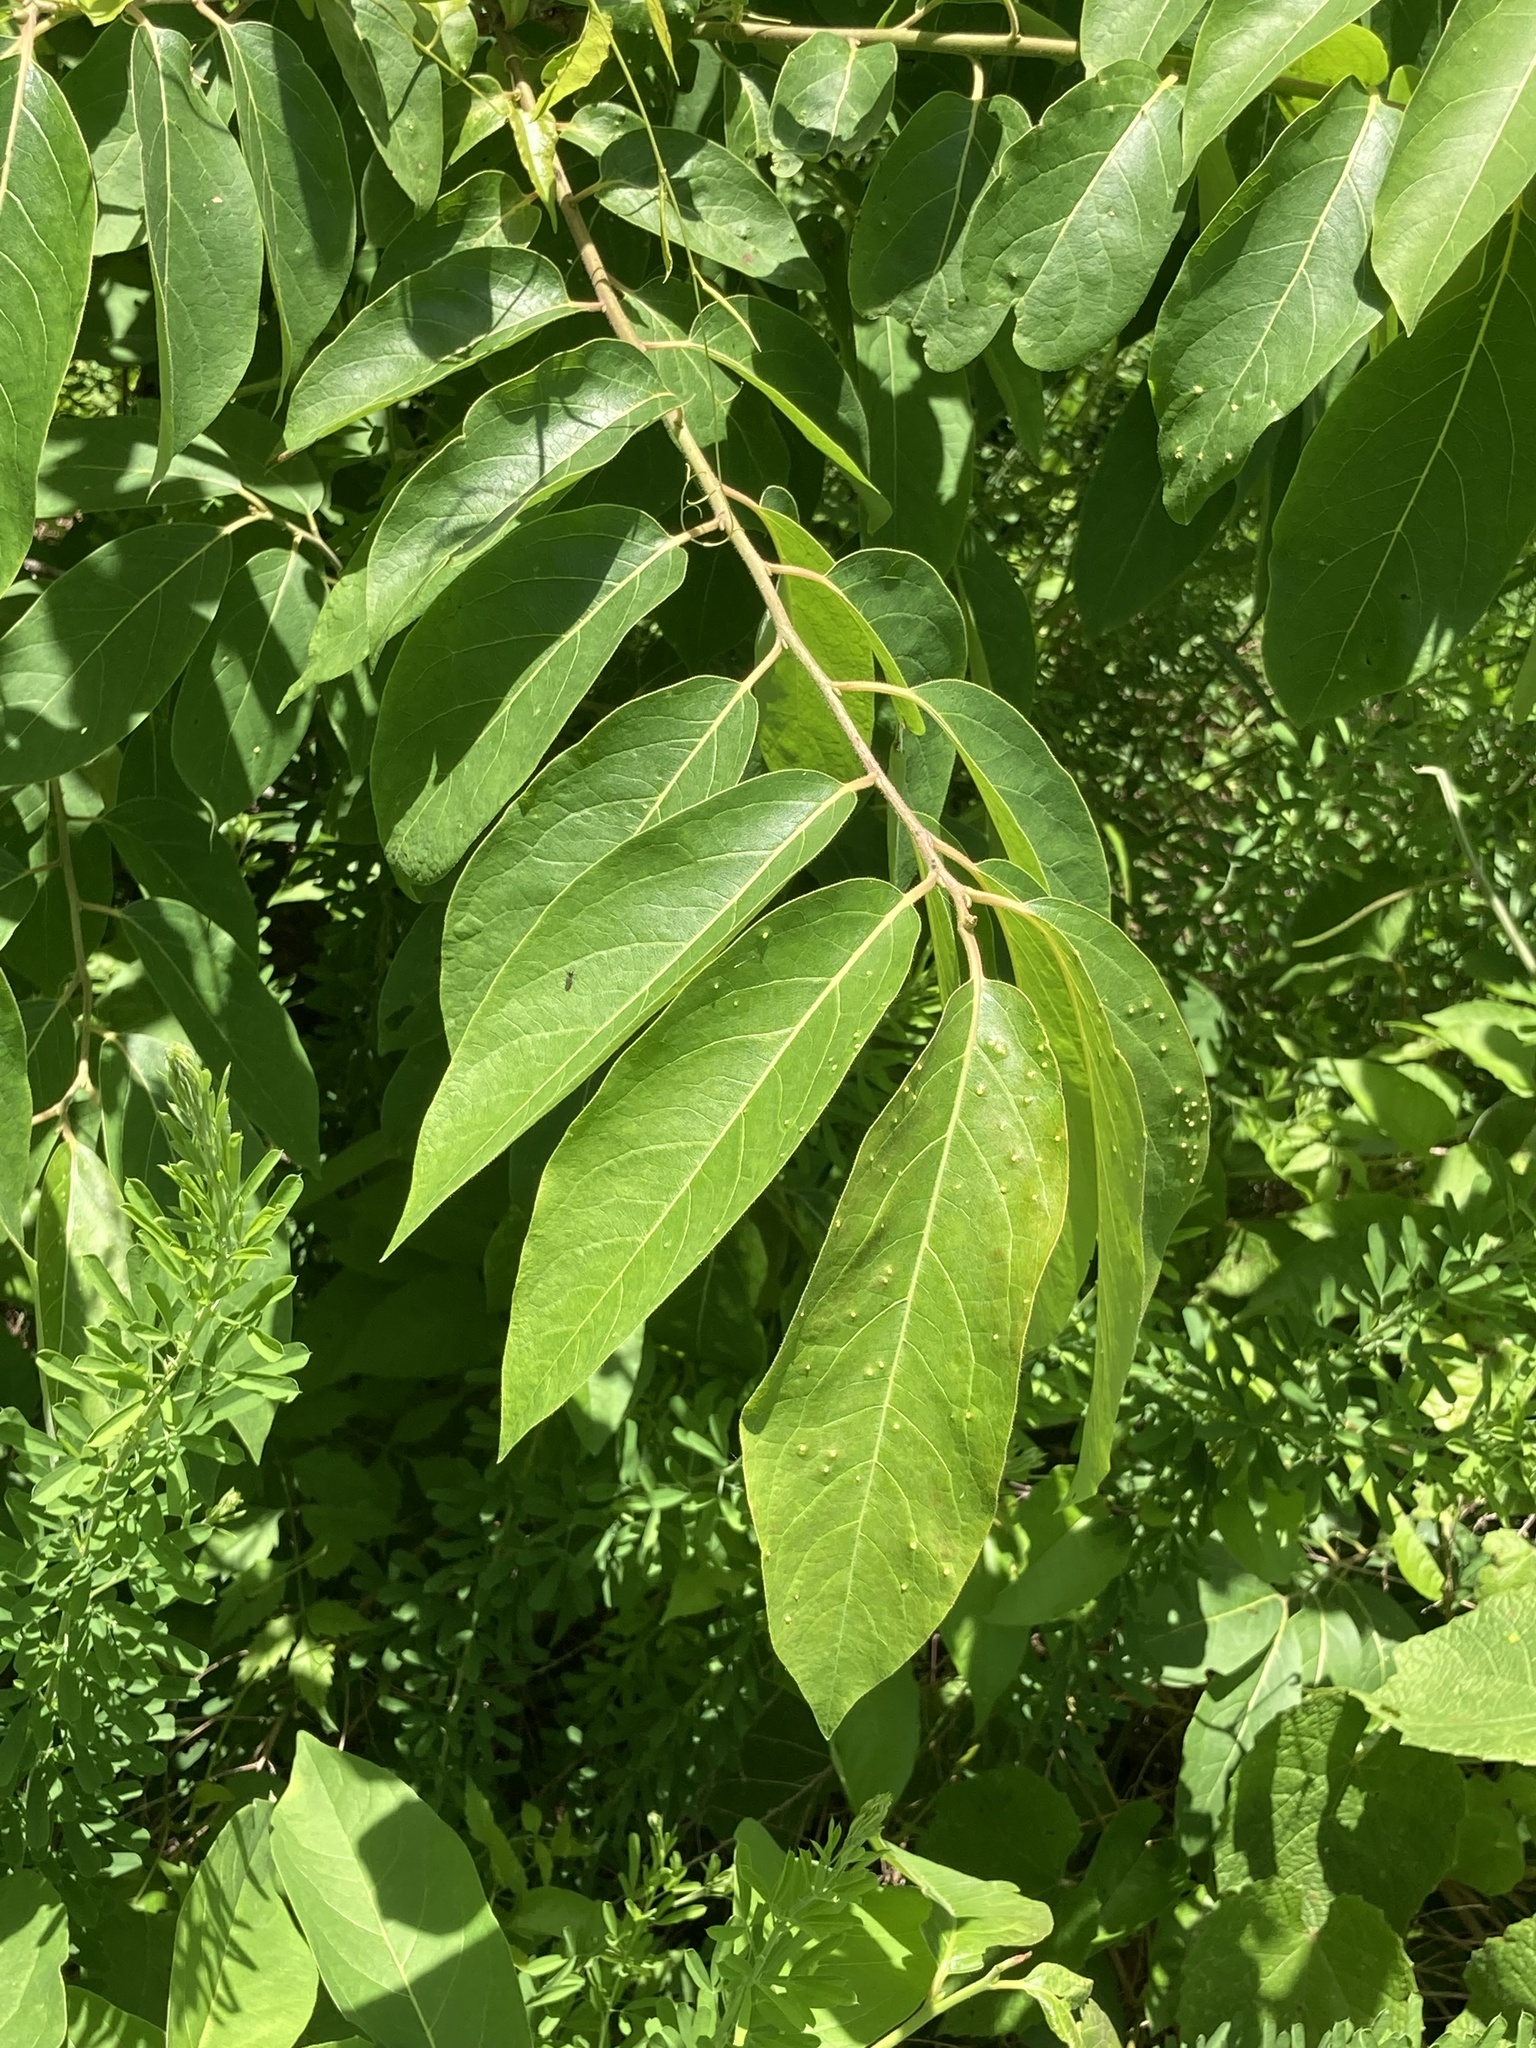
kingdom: Plantae
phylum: Tracheophyta
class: Magnoliopsida
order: Ericales
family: Ebenaceae
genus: Diospyros
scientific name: Diospyros virginiana
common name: Persimmon
